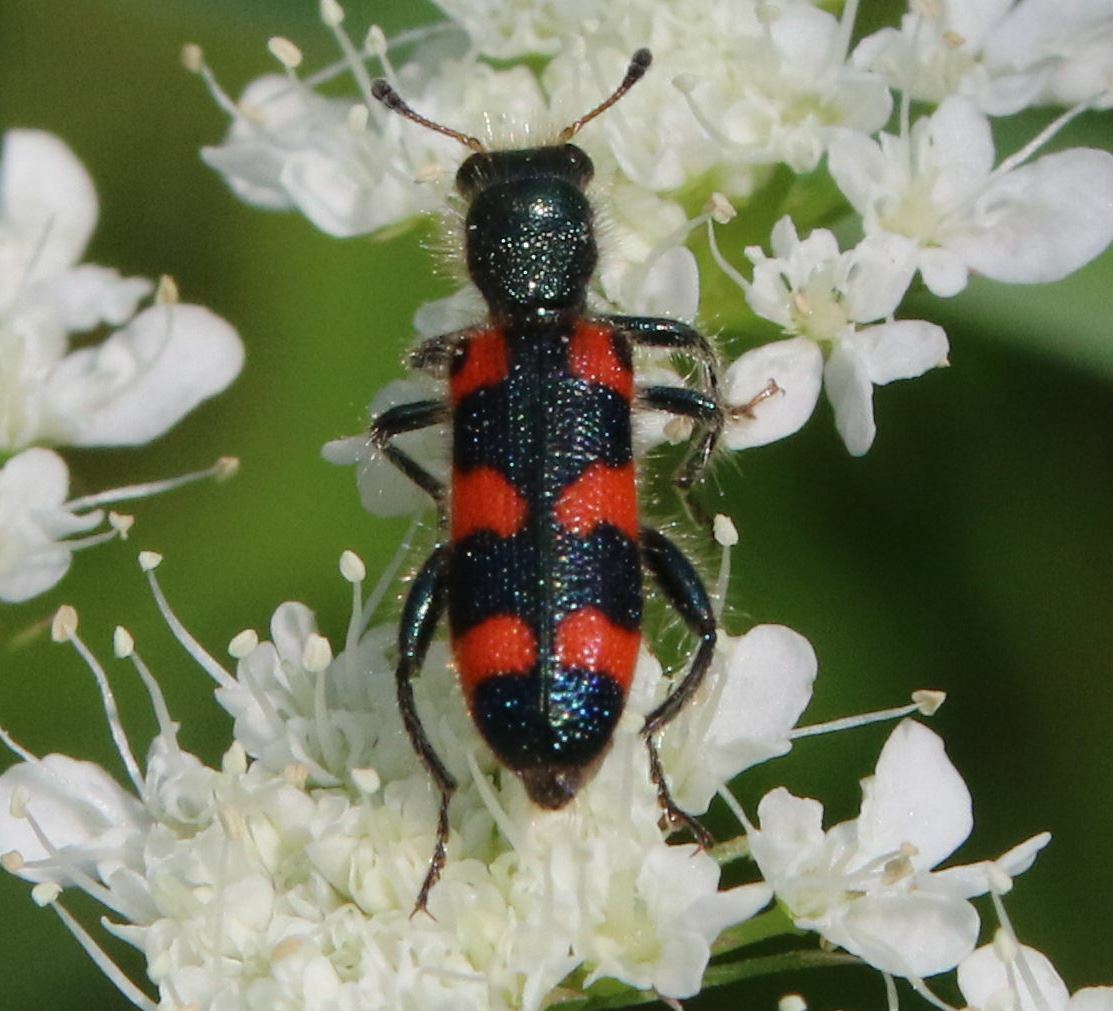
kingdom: Animalia
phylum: Arthropoda
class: Insecta
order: Coleoptera
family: Cleridae
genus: Trichodes
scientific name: Trichodes leucopsideus
